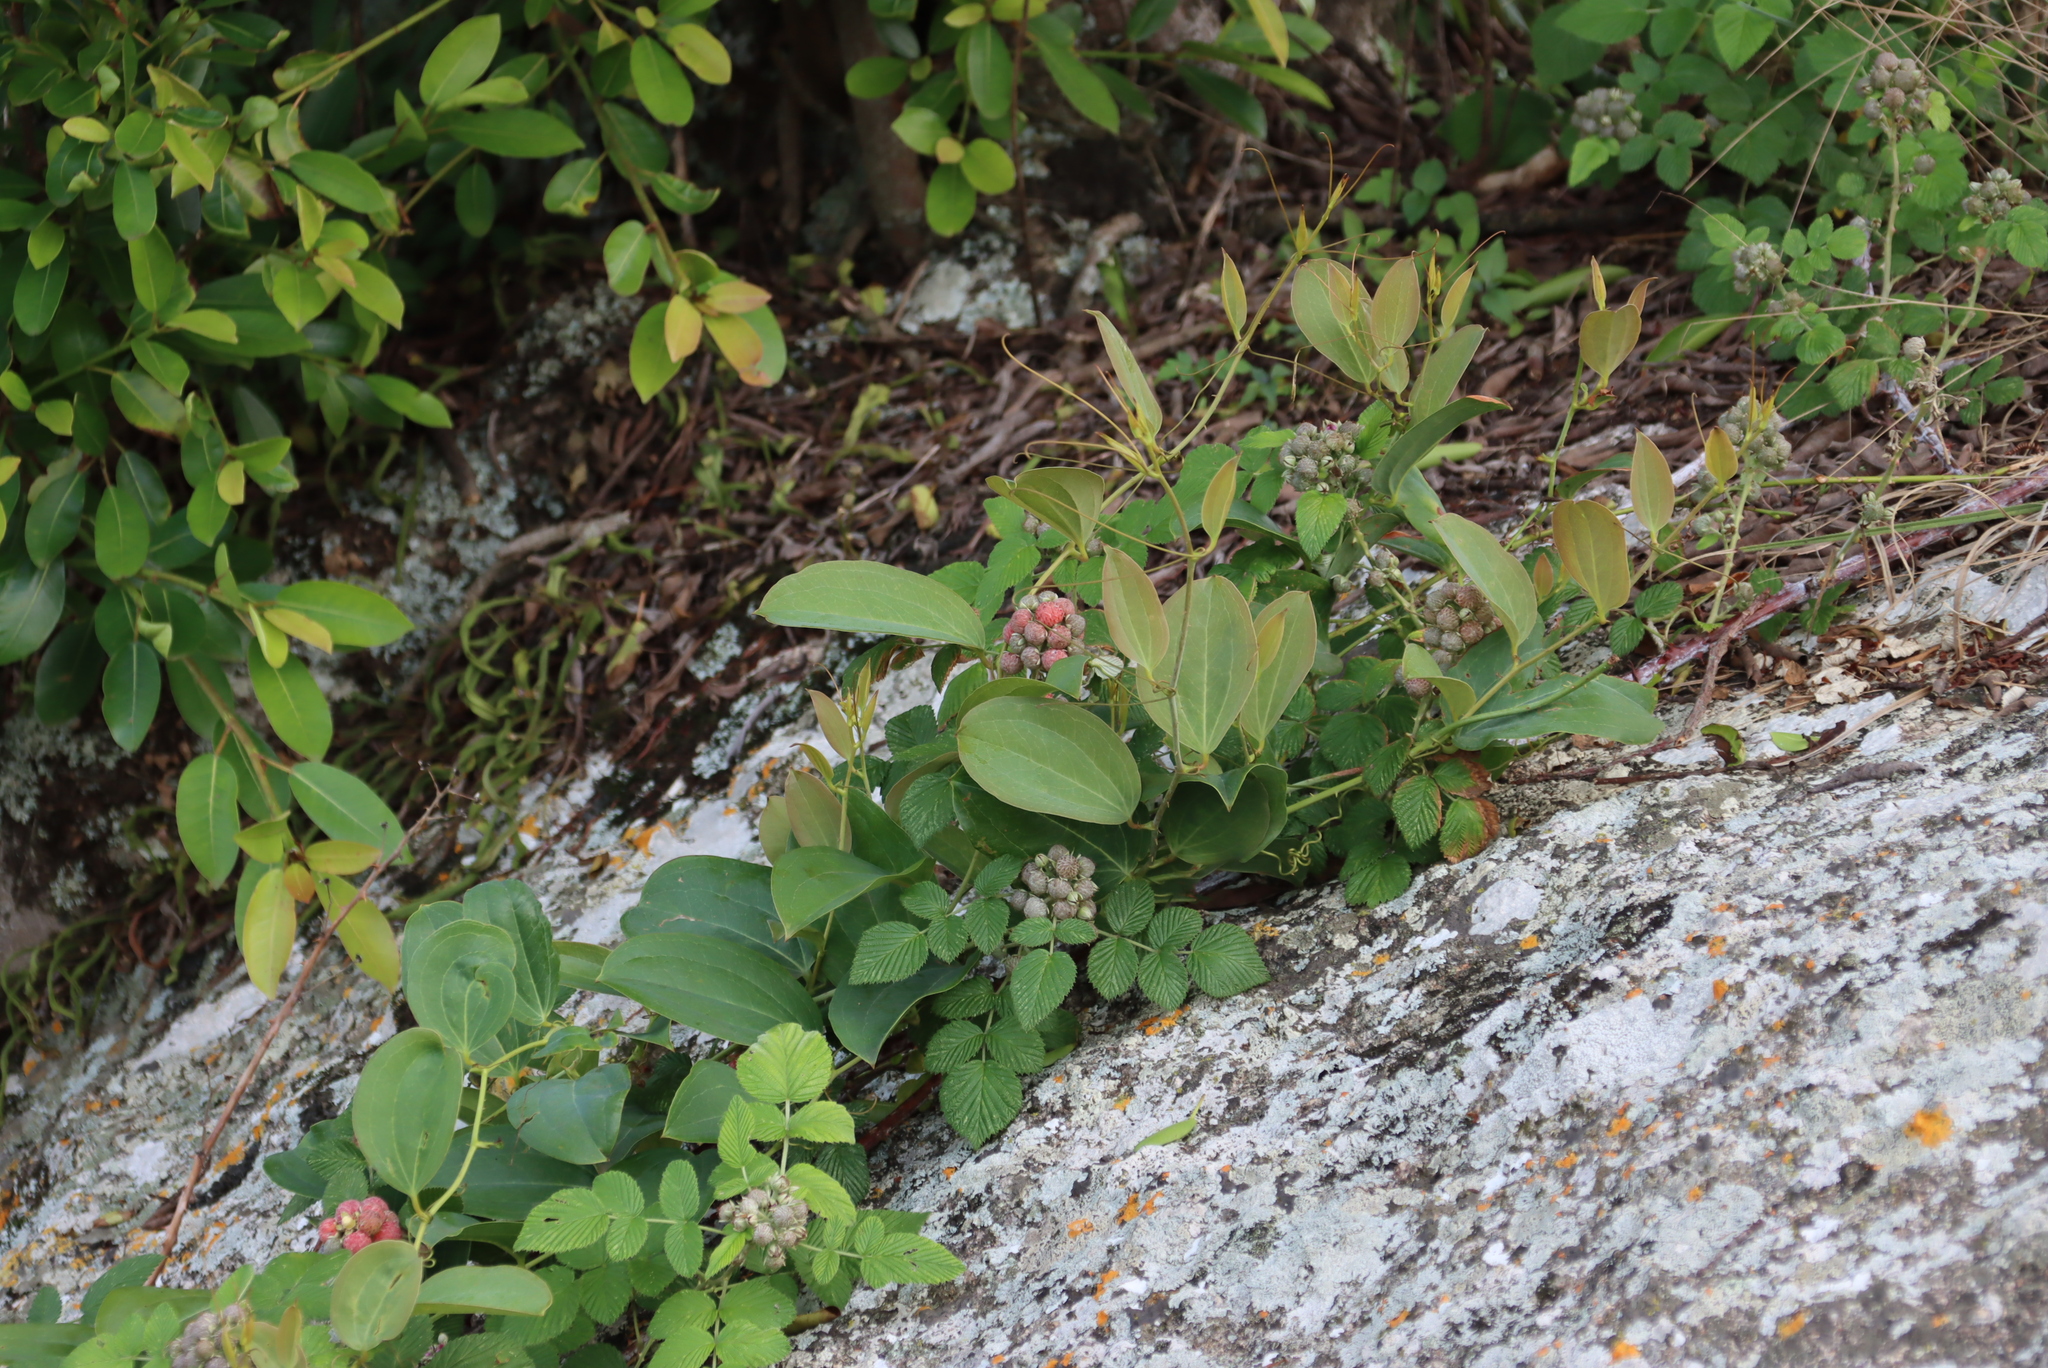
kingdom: Plantae
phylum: Tracheophyta
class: Magnoliopsida
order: Rosales
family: Rosaceae
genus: Rubus
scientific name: Rubus niveus
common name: Snowpeaks raspberry
